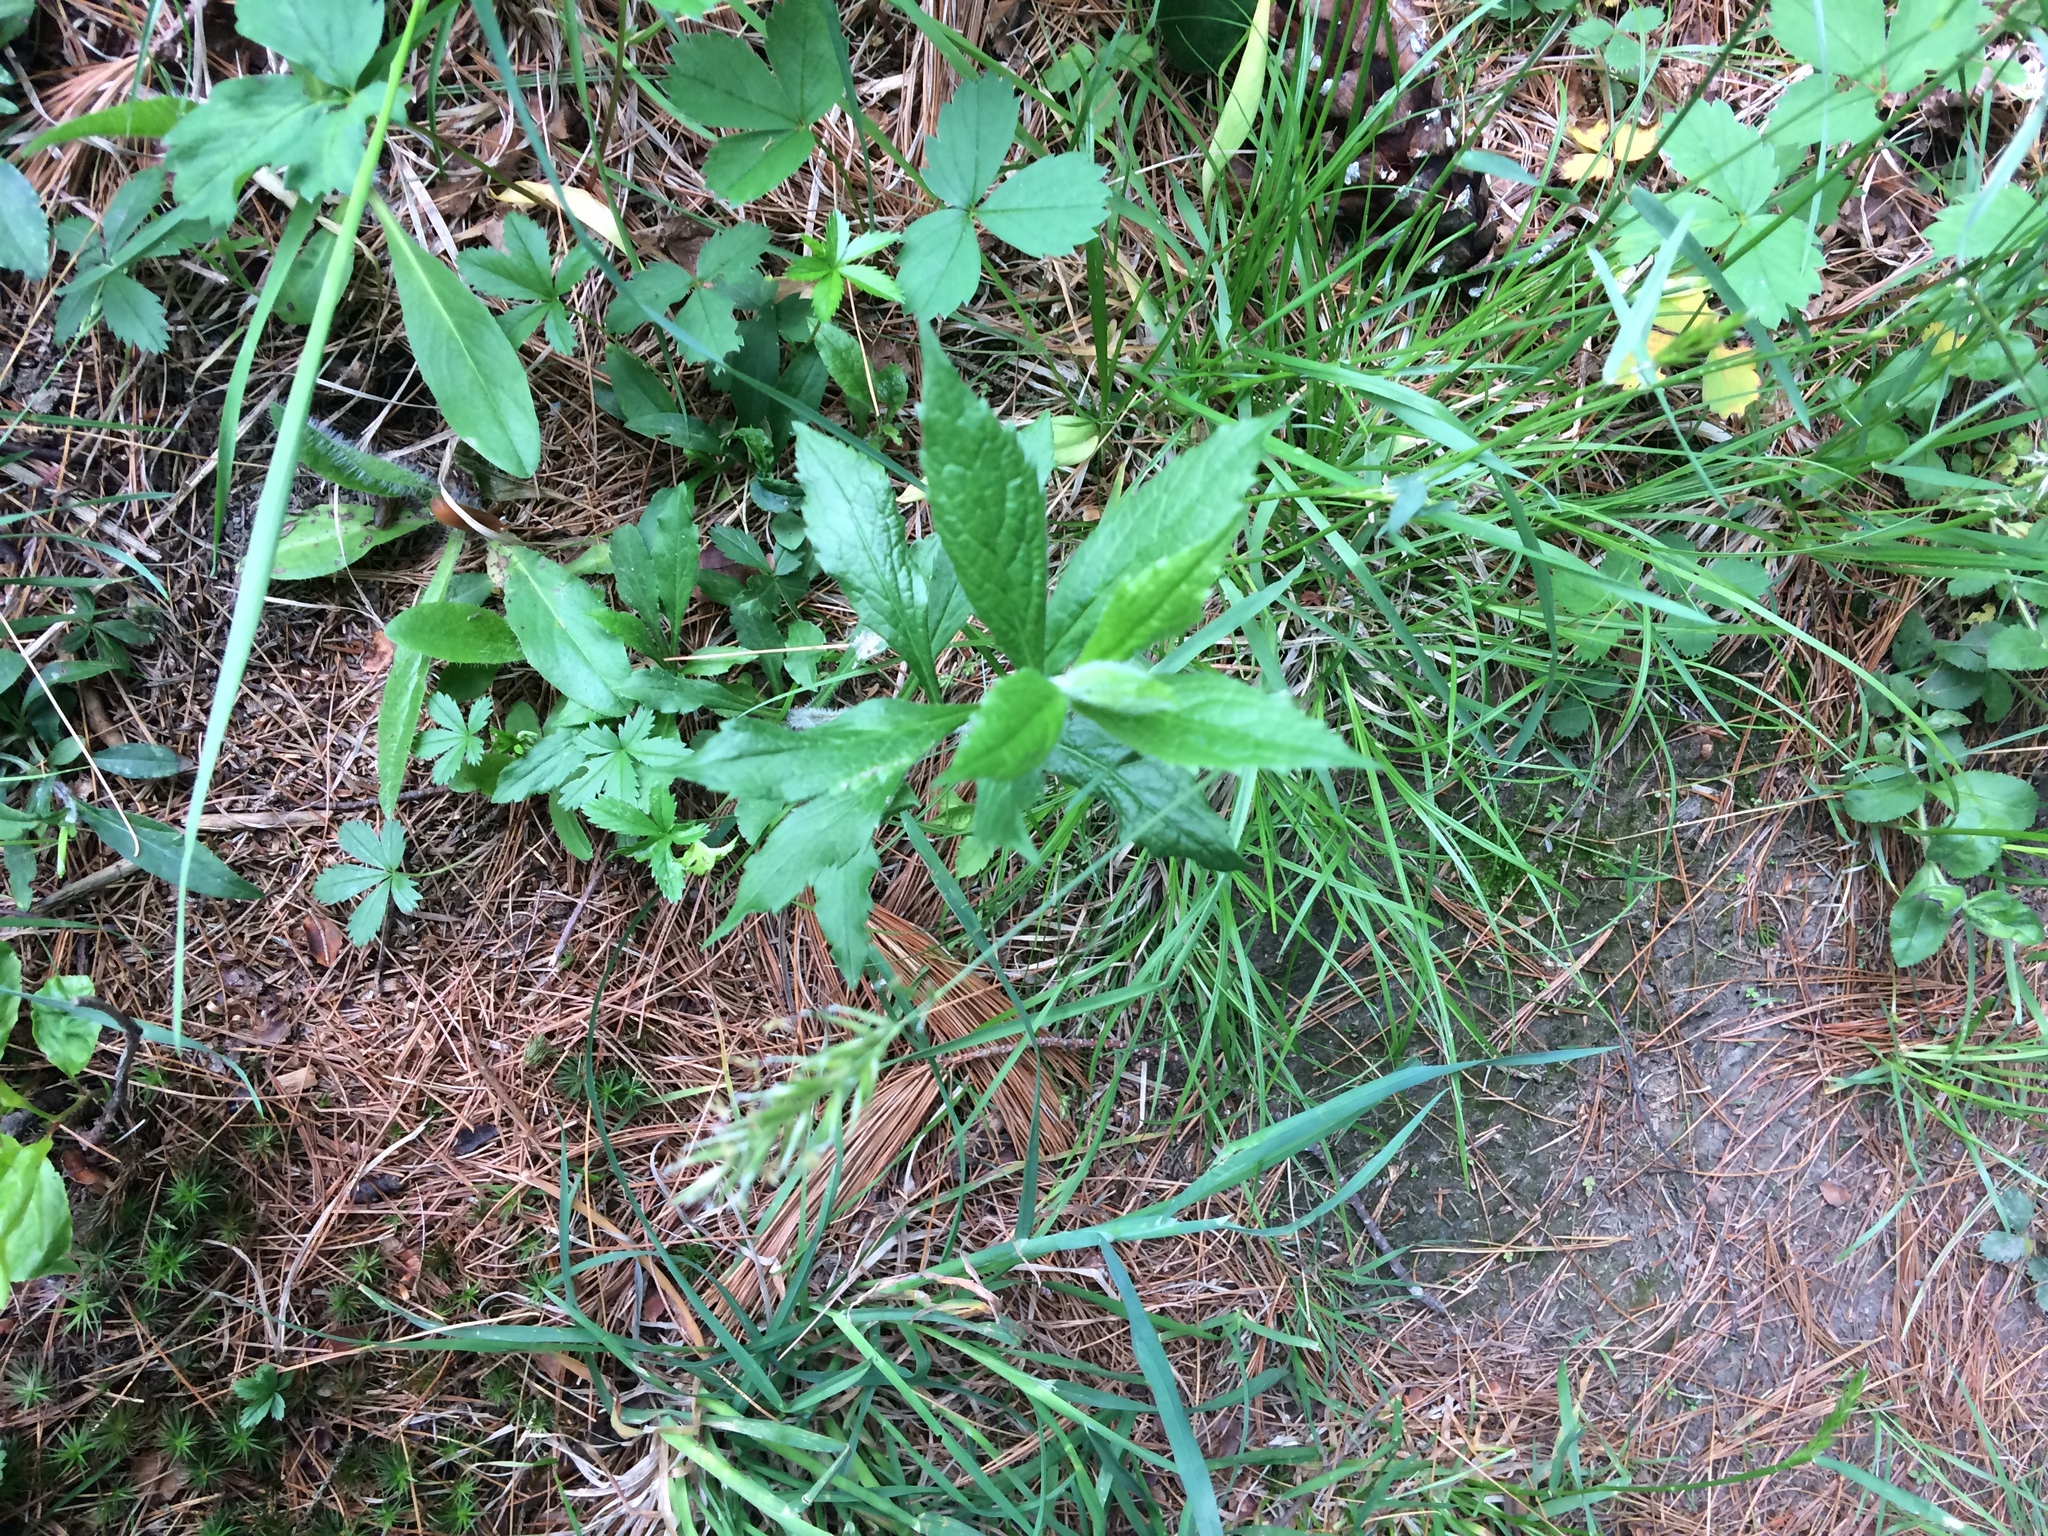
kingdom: Plantae
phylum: Tracheophyta
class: Magnoliopsida
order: Asterales
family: Asteraceae
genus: Solidago
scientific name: Solidago rugosa
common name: Rough-stemmed goldenrod
